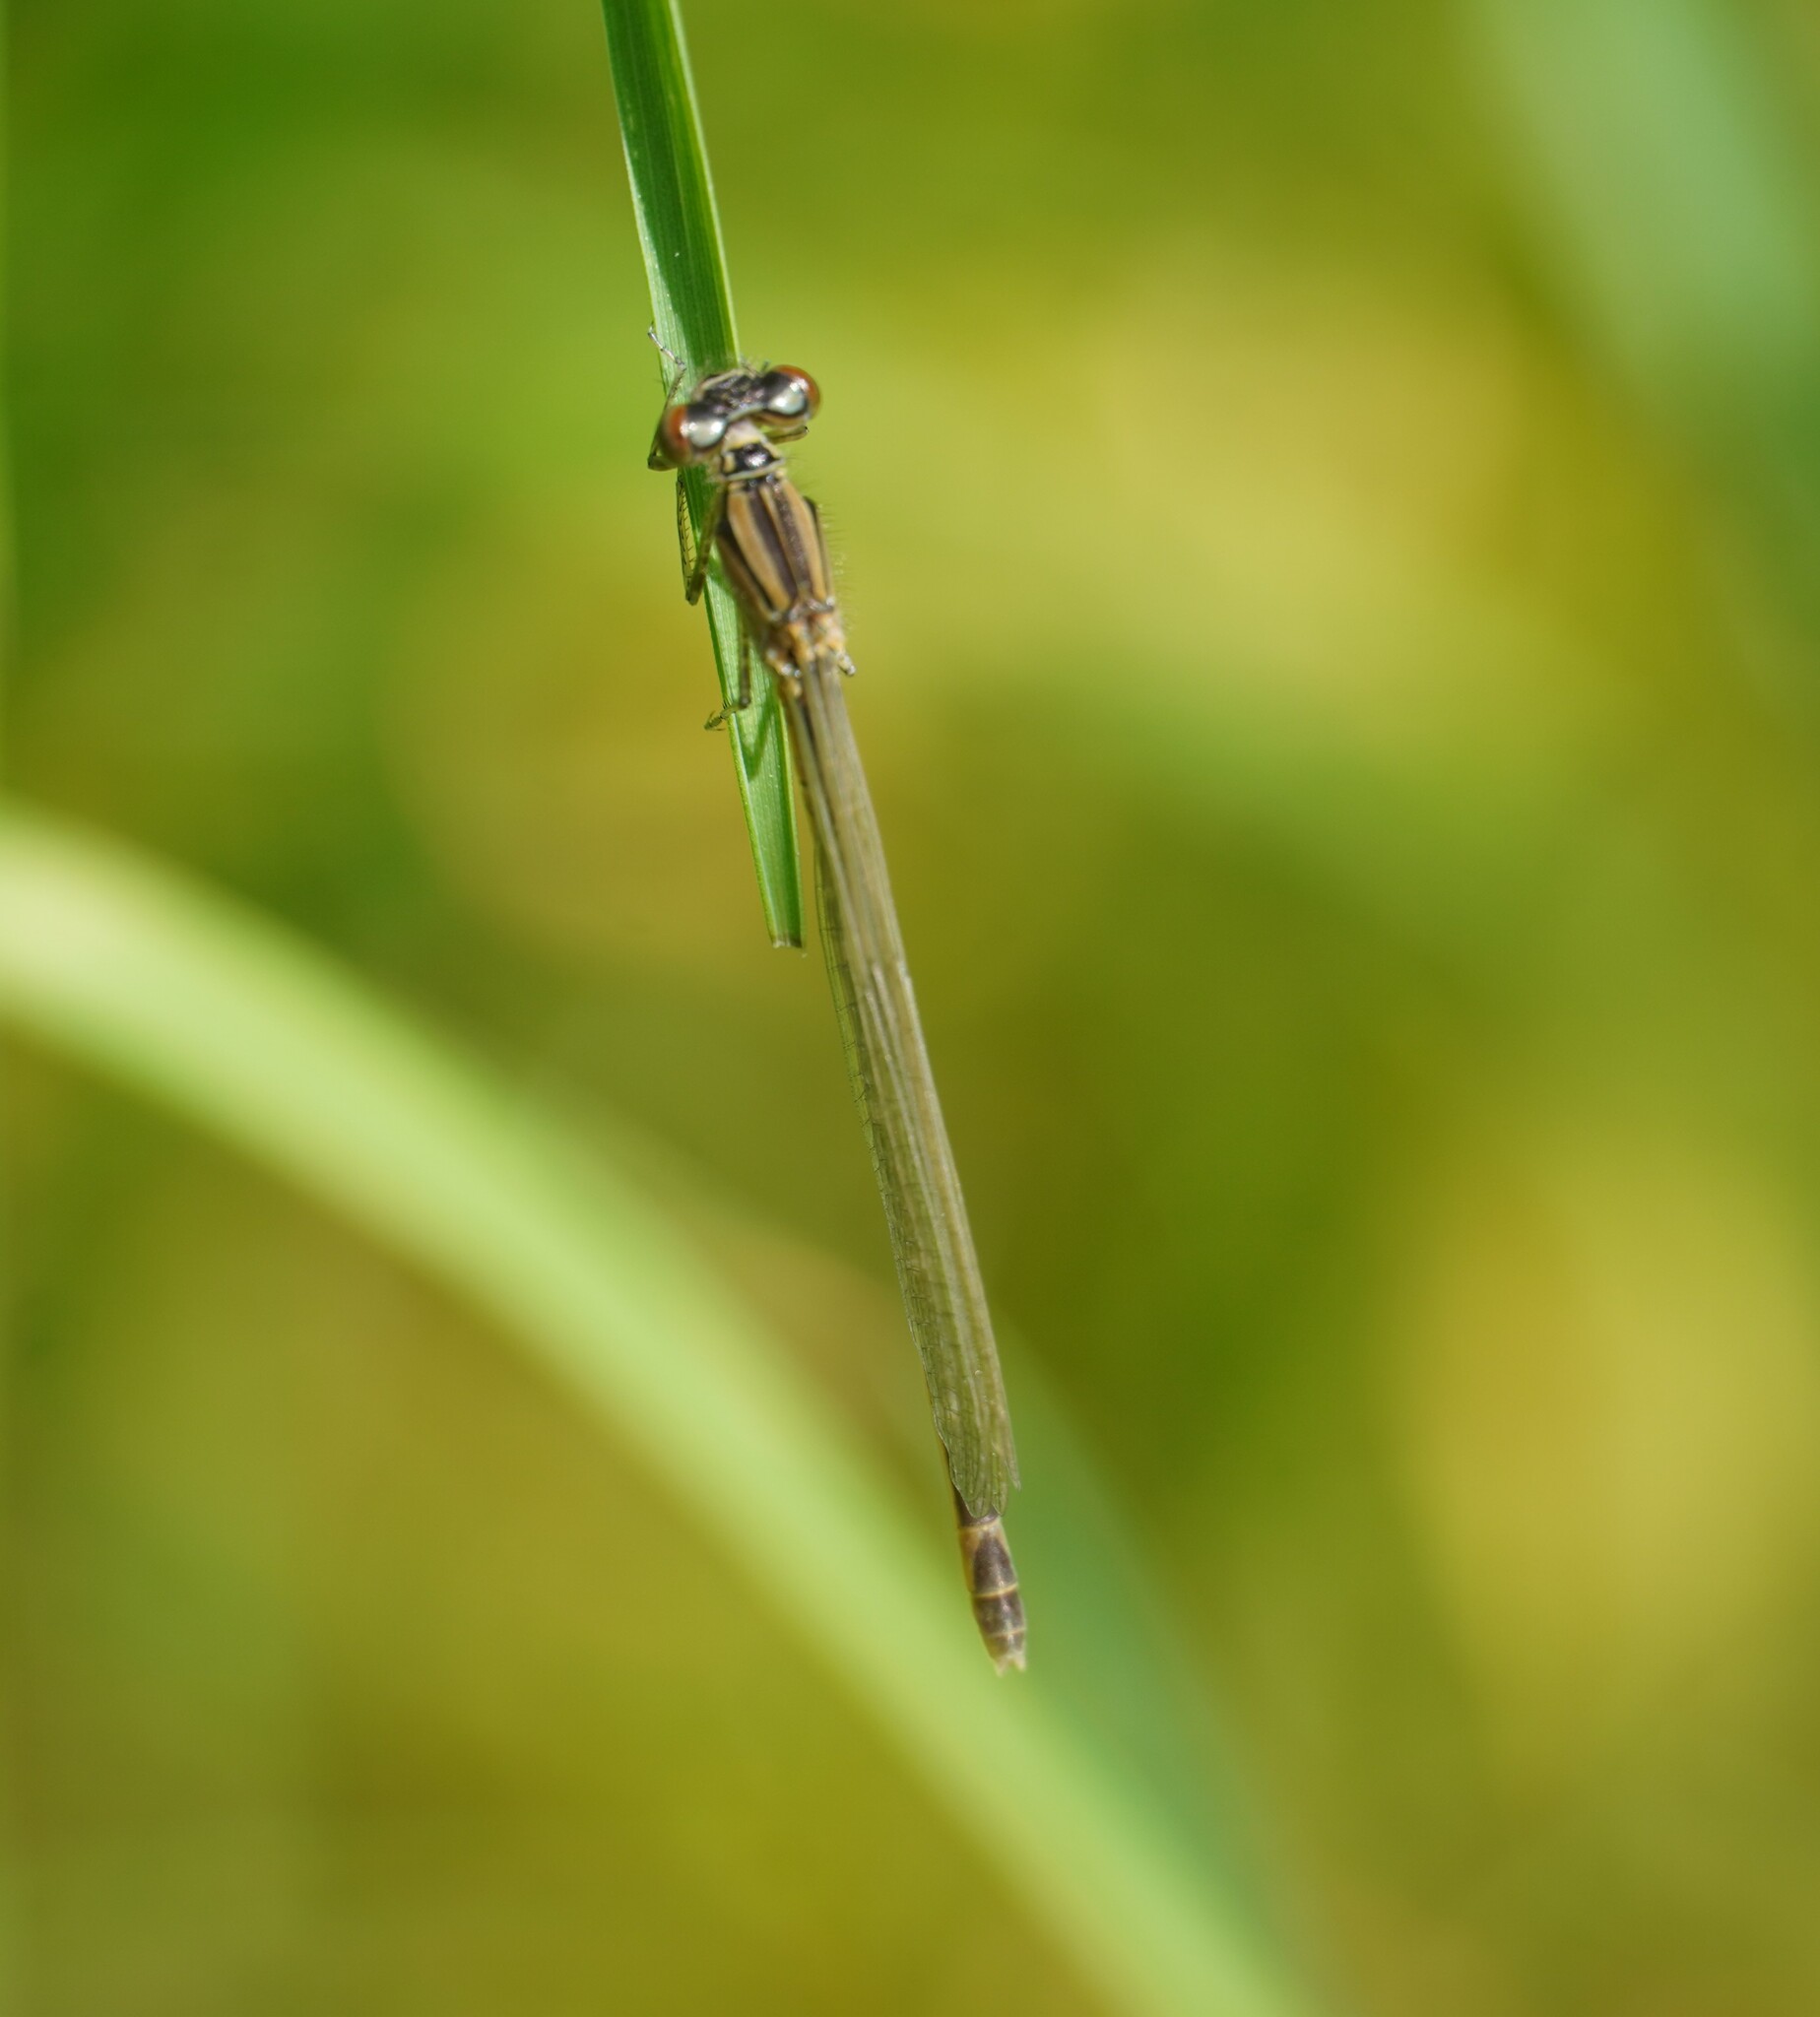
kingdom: Animalia
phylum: Arthropoda
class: Insecta
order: Odonata
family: Coenagrionidae
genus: Enallagma
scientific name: Enallagma cyathigerum
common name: Common blue damselfly
